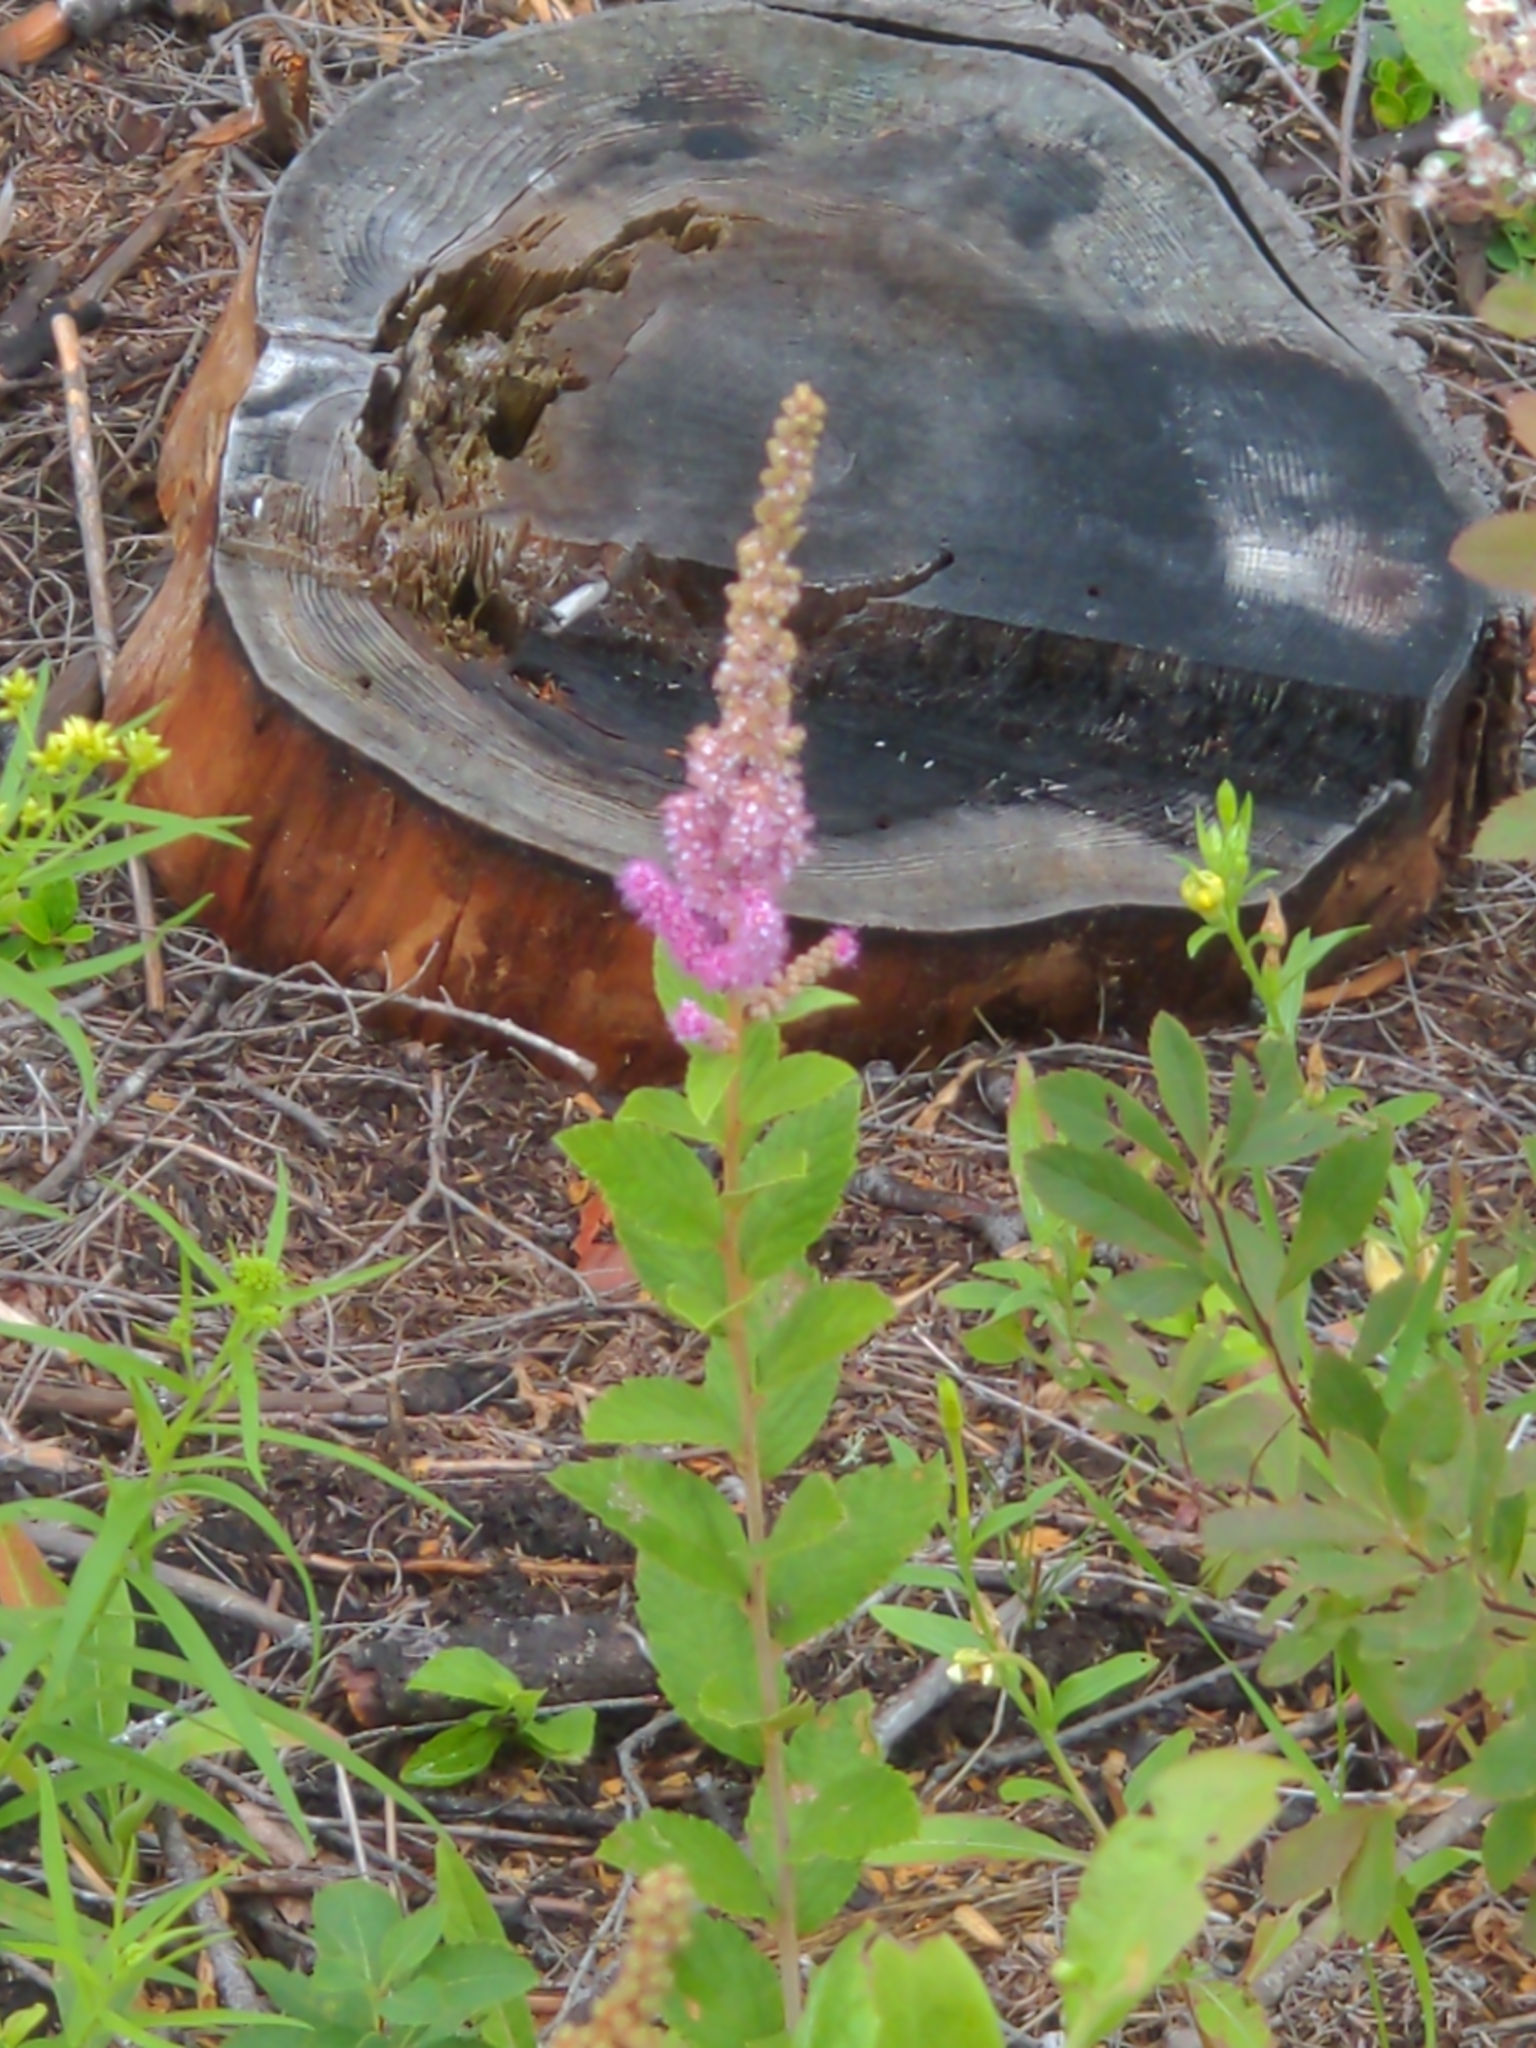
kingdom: Plantae
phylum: Tracheophyta
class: Magnoliopsida
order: Rosales
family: Rosaceae
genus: Spiraea
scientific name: Spiraea tomentosa
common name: Hardhack
